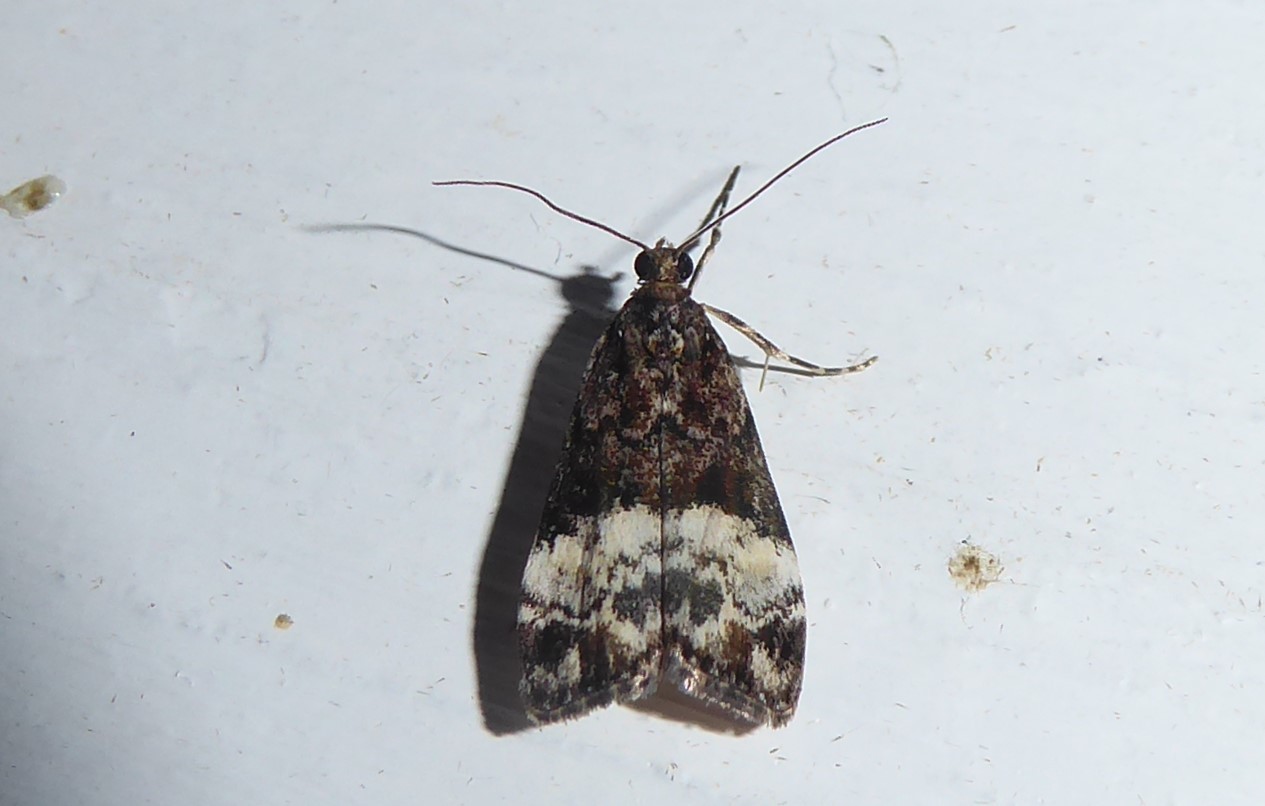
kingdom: Animalia
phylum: Arthropoda
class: Insecta
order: Lepidoptera
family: Crambidae
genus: Scoparia
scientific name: Scoparia minusculalis
